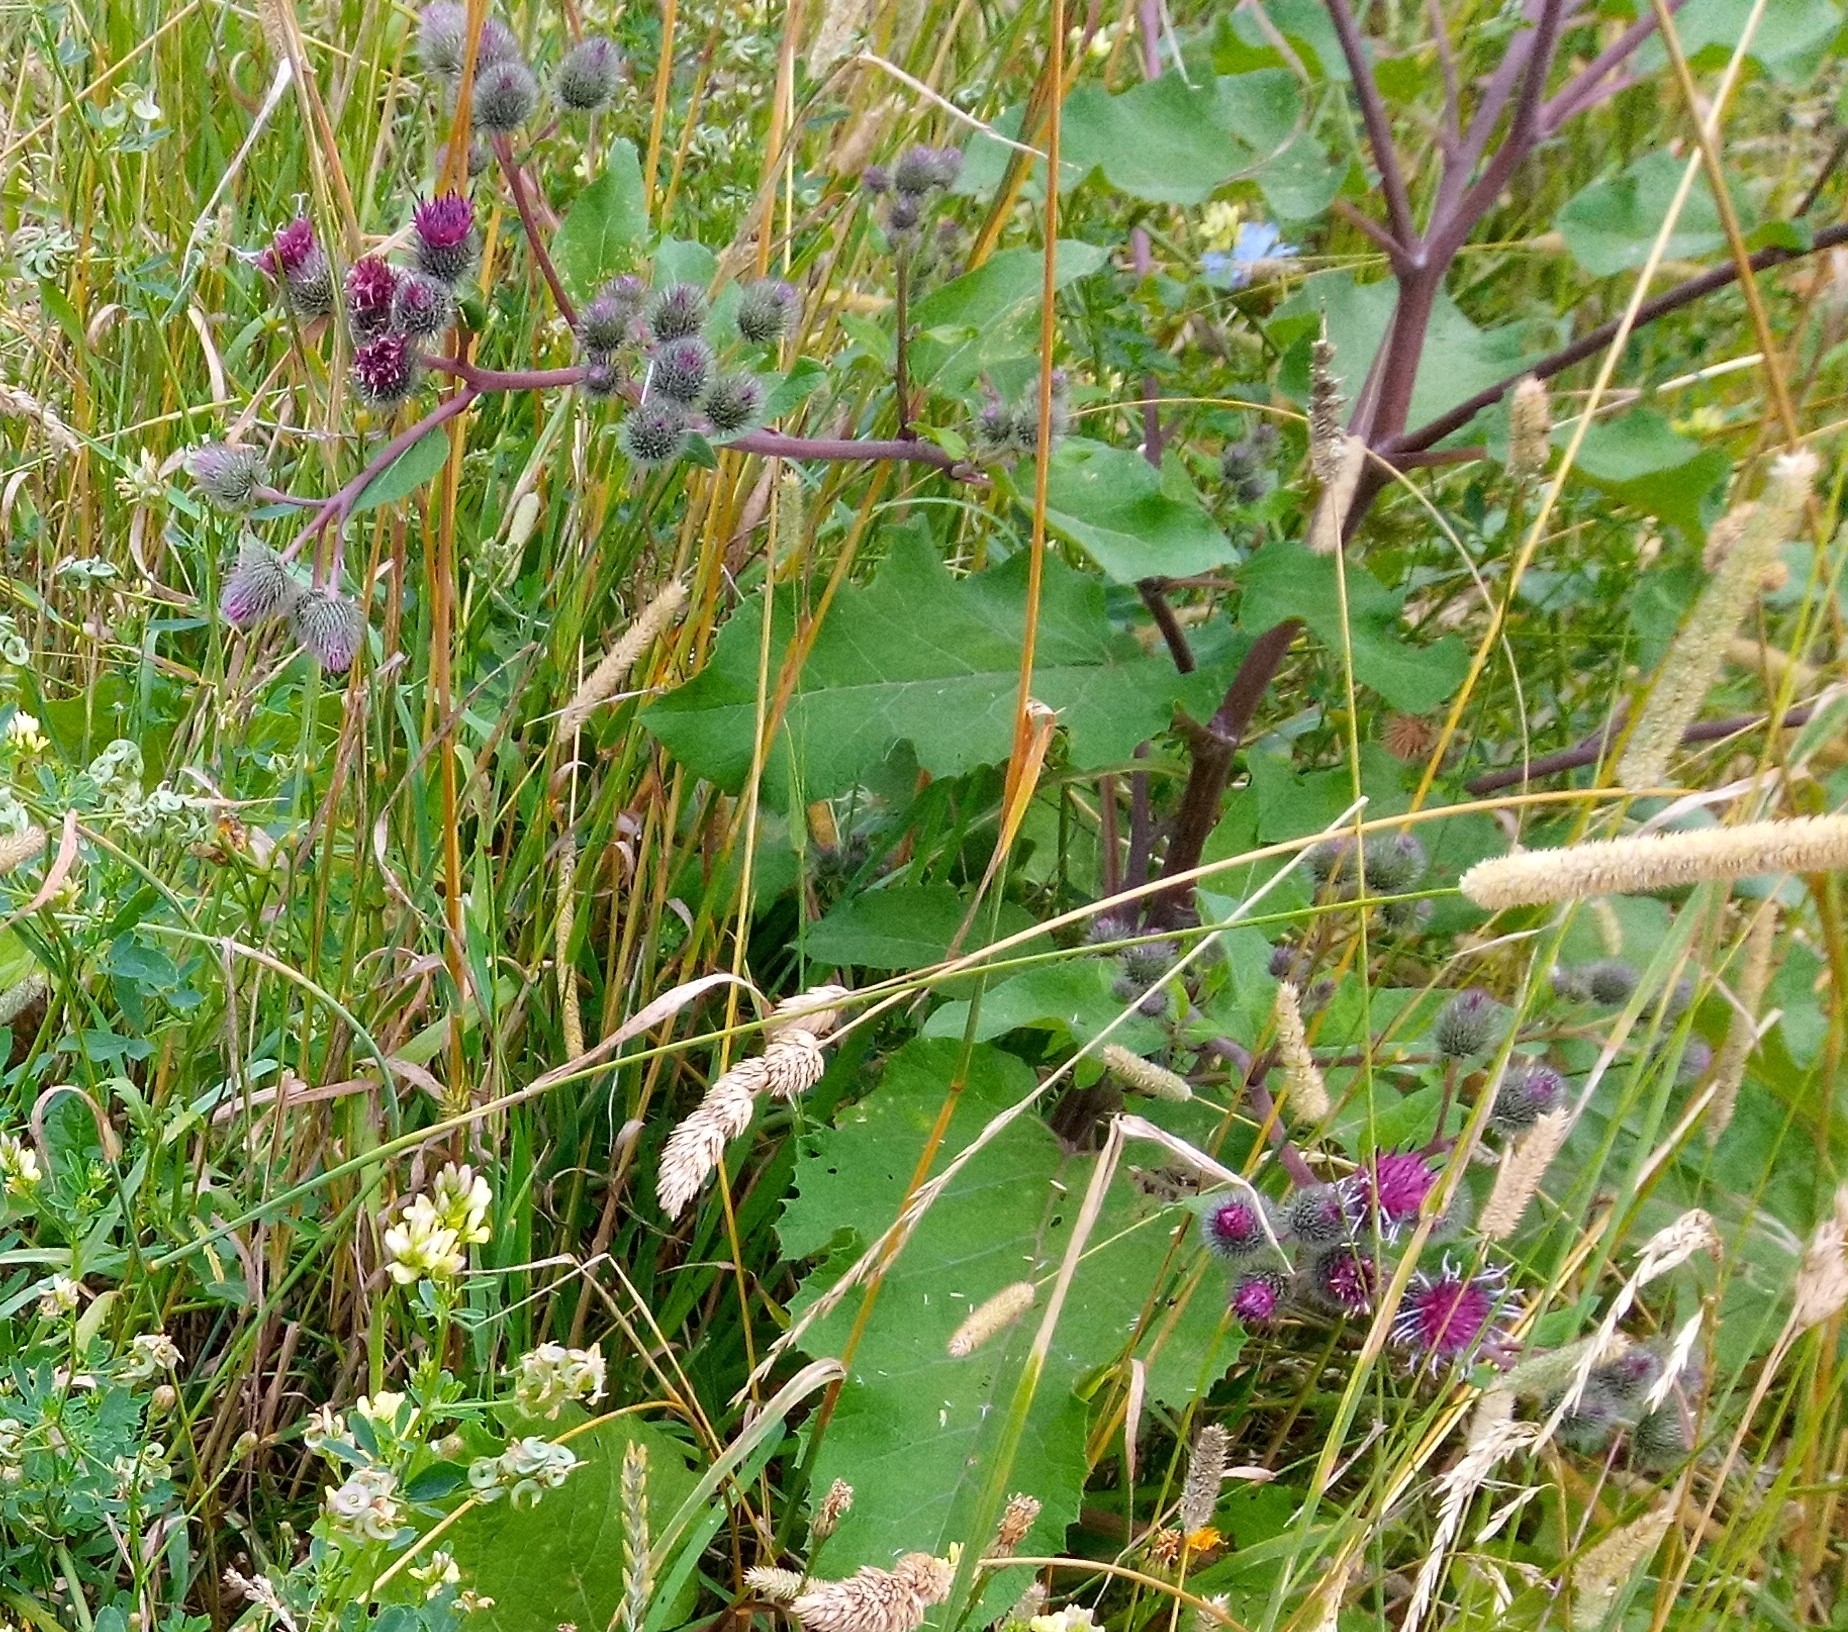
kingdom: Plantae
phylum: Tracheophyta
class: Magnoliopsida
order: Asterales
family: Asteraceae
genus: Arctium
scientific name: Arctium tomentosum
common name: Woolly burdock
